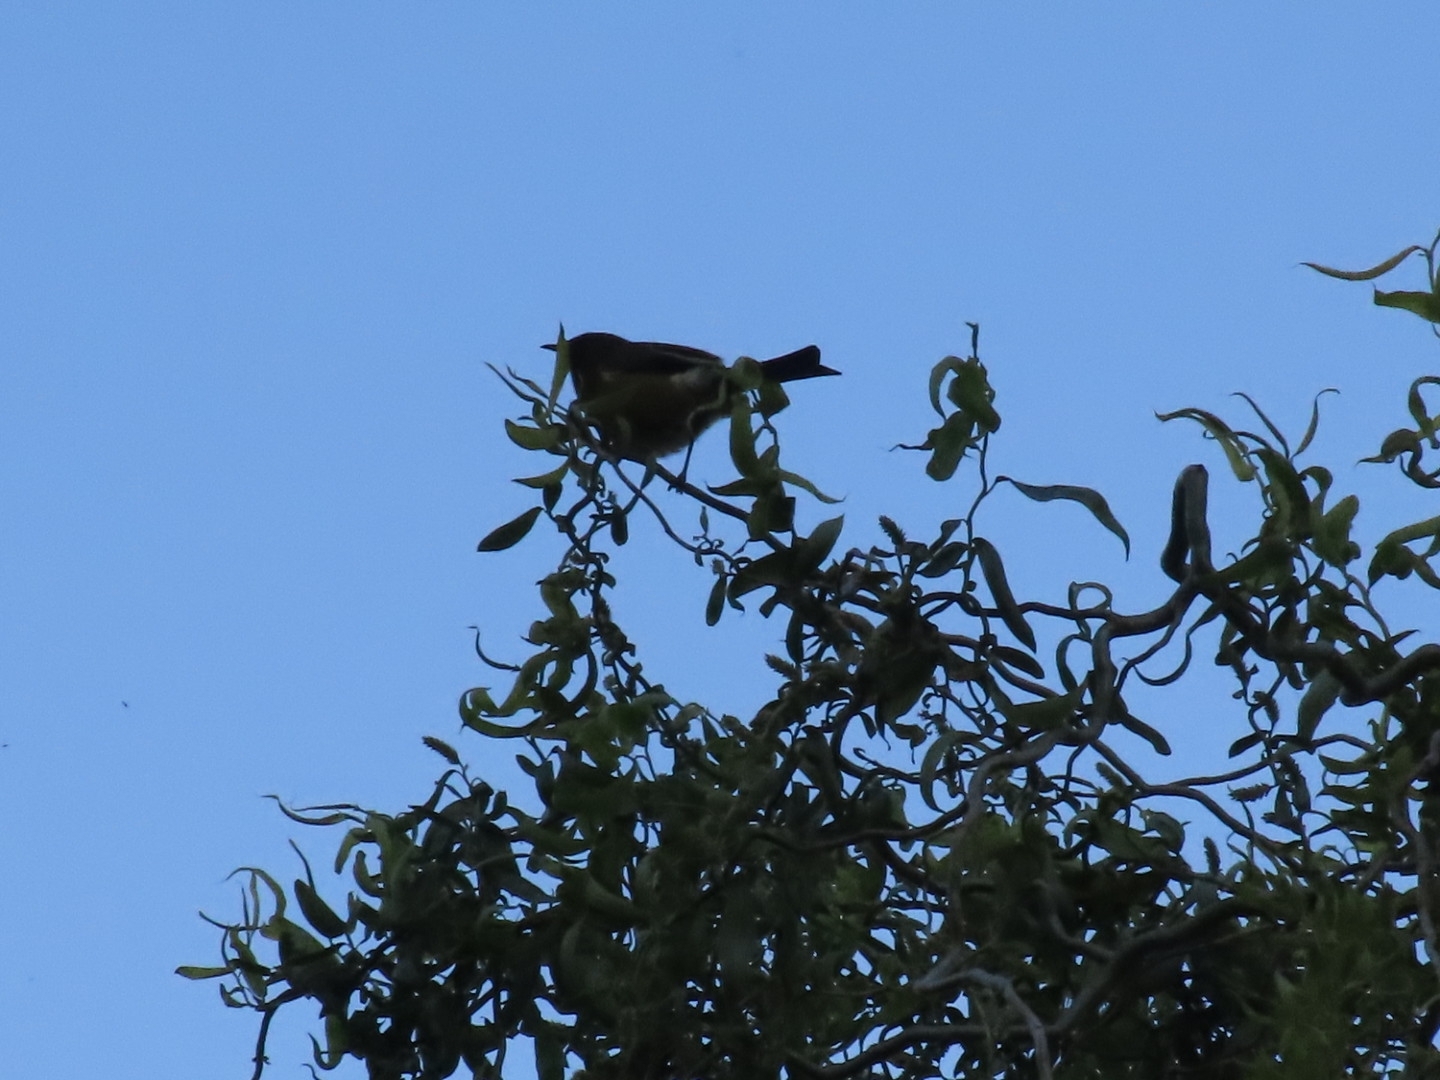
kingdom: Animalia
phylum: Chordata
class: Aves
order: Passeriformes
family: Meliphagidae
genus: Anthornis
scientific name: Anthornis melanura
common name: New zealand bellbird
